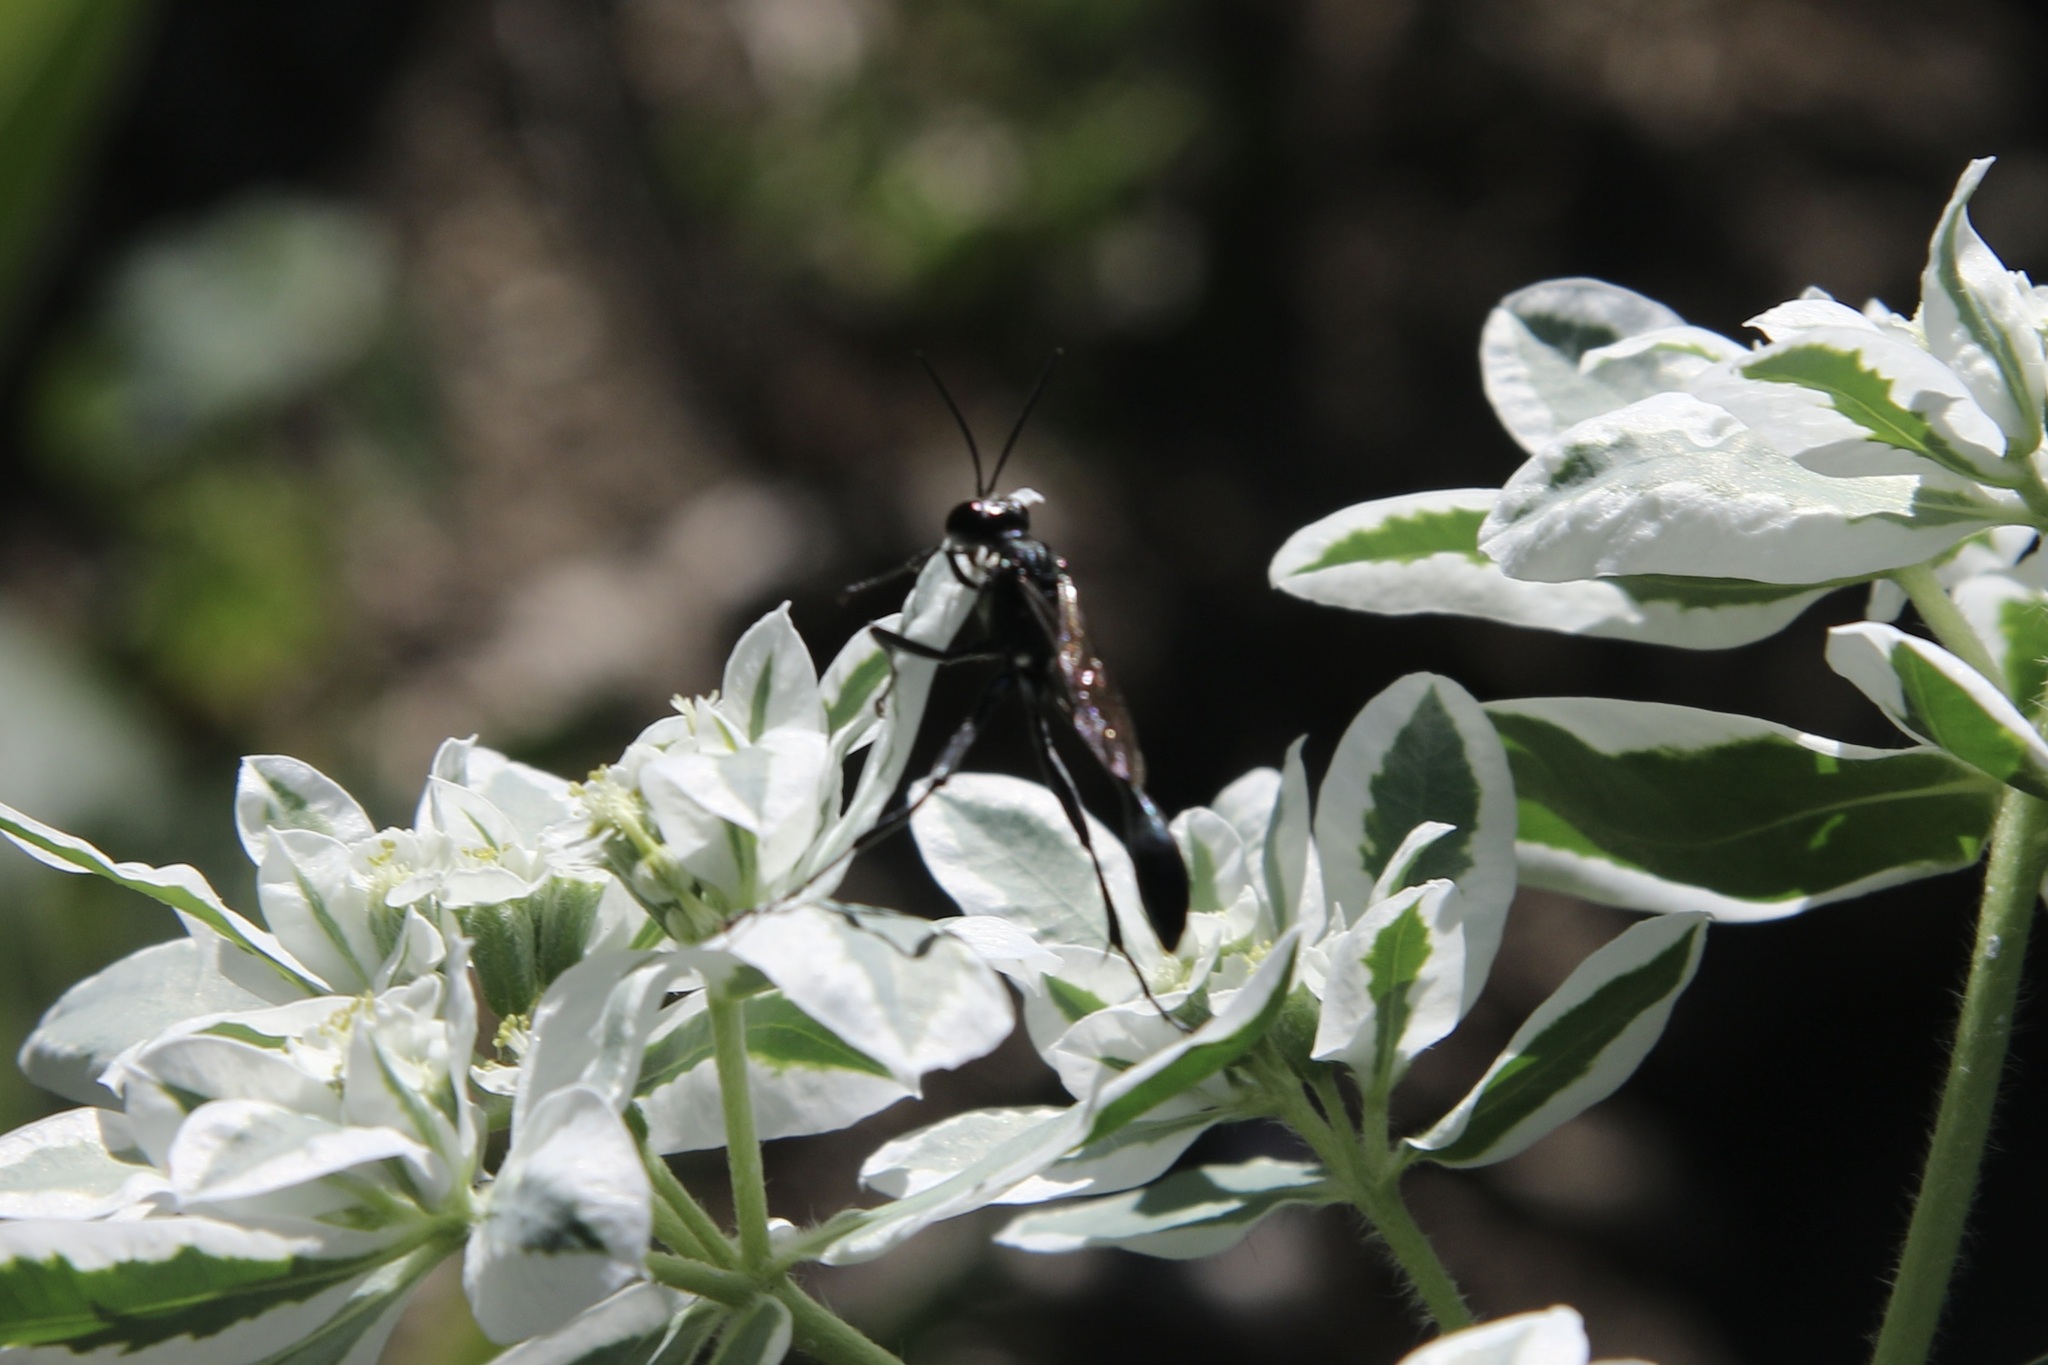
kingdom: Animalia
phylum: Arthropoda
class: Insecta
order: Hymenoptera
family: Sphecidae
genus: Eremnophila
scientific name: Eremnophila aureonotata
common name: Gold-marked thread-waisted wasp
